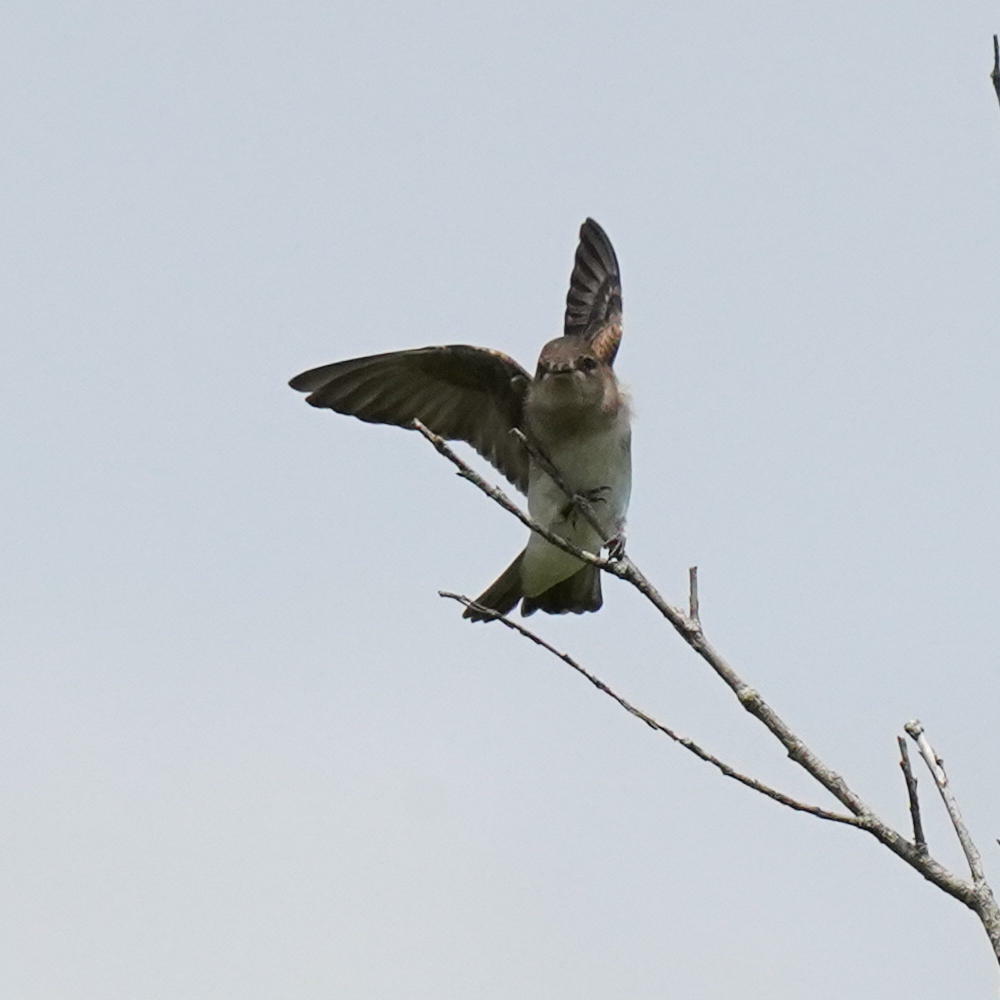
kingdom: Animalia
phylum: Chordata
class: Aves
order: Passeriformes
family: Hirundinidae
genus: Stelgidopteryx
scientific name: Stelgidopteryx serripennis
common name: Northern rough-winged swallow
